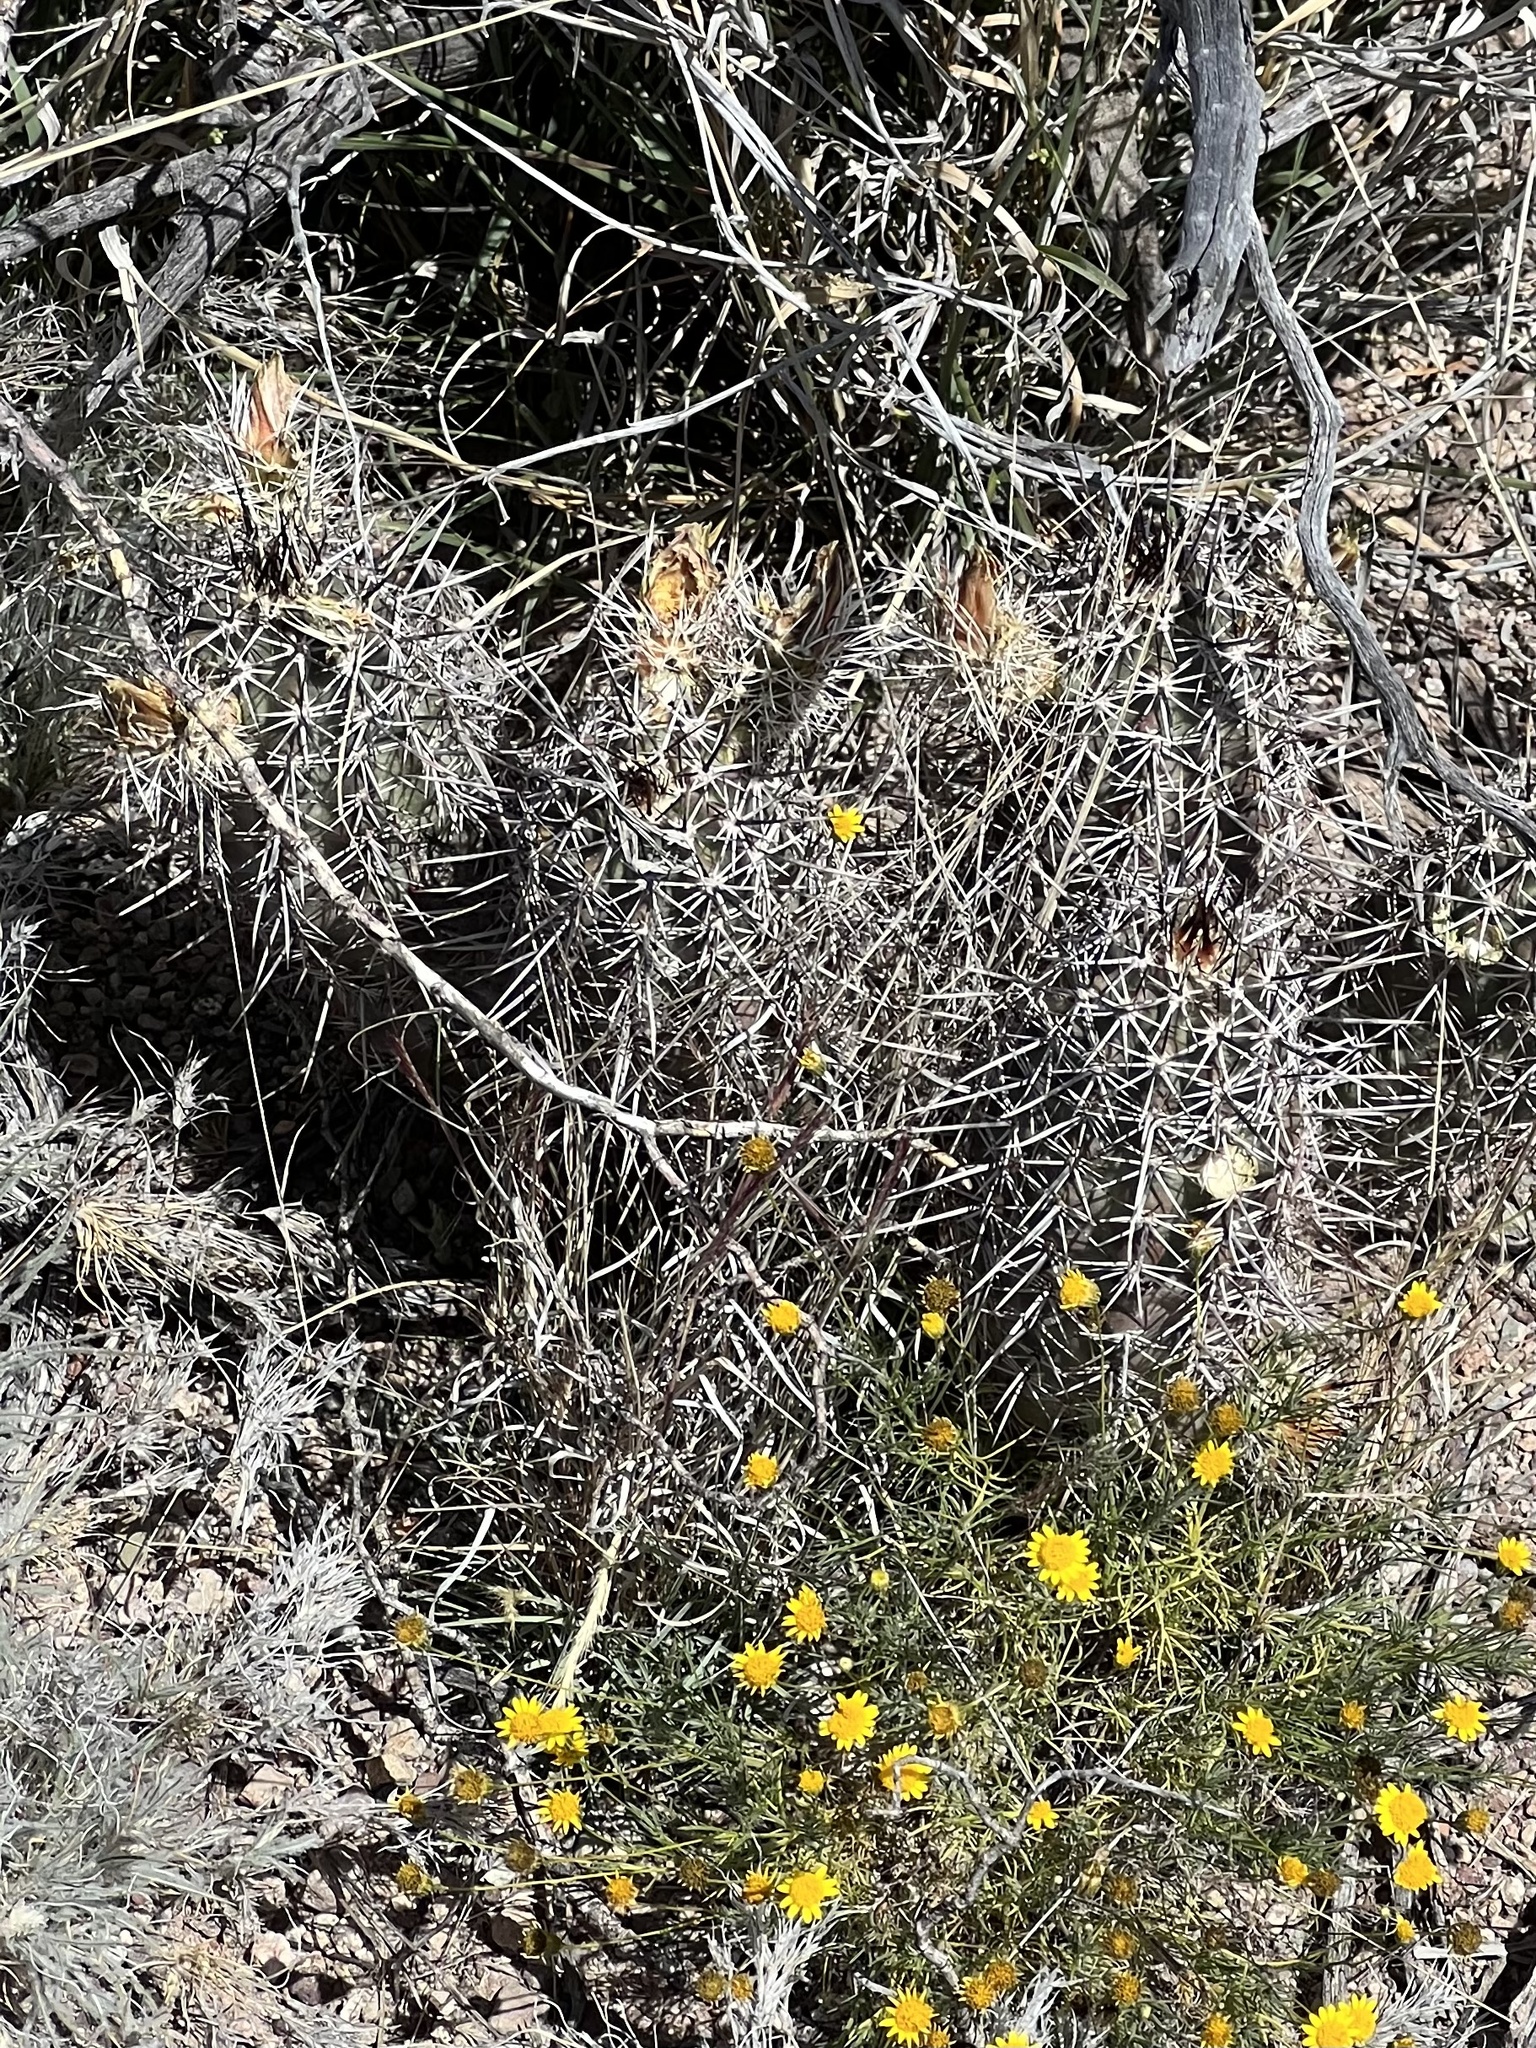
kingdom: Plantae
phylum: Tracheophyta
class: Magnoliopsida
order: Caryophyllales
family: Cactaceae
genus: Echinocereus
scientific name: Echinocereus fasciculatus
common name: Bundle hedgehog
